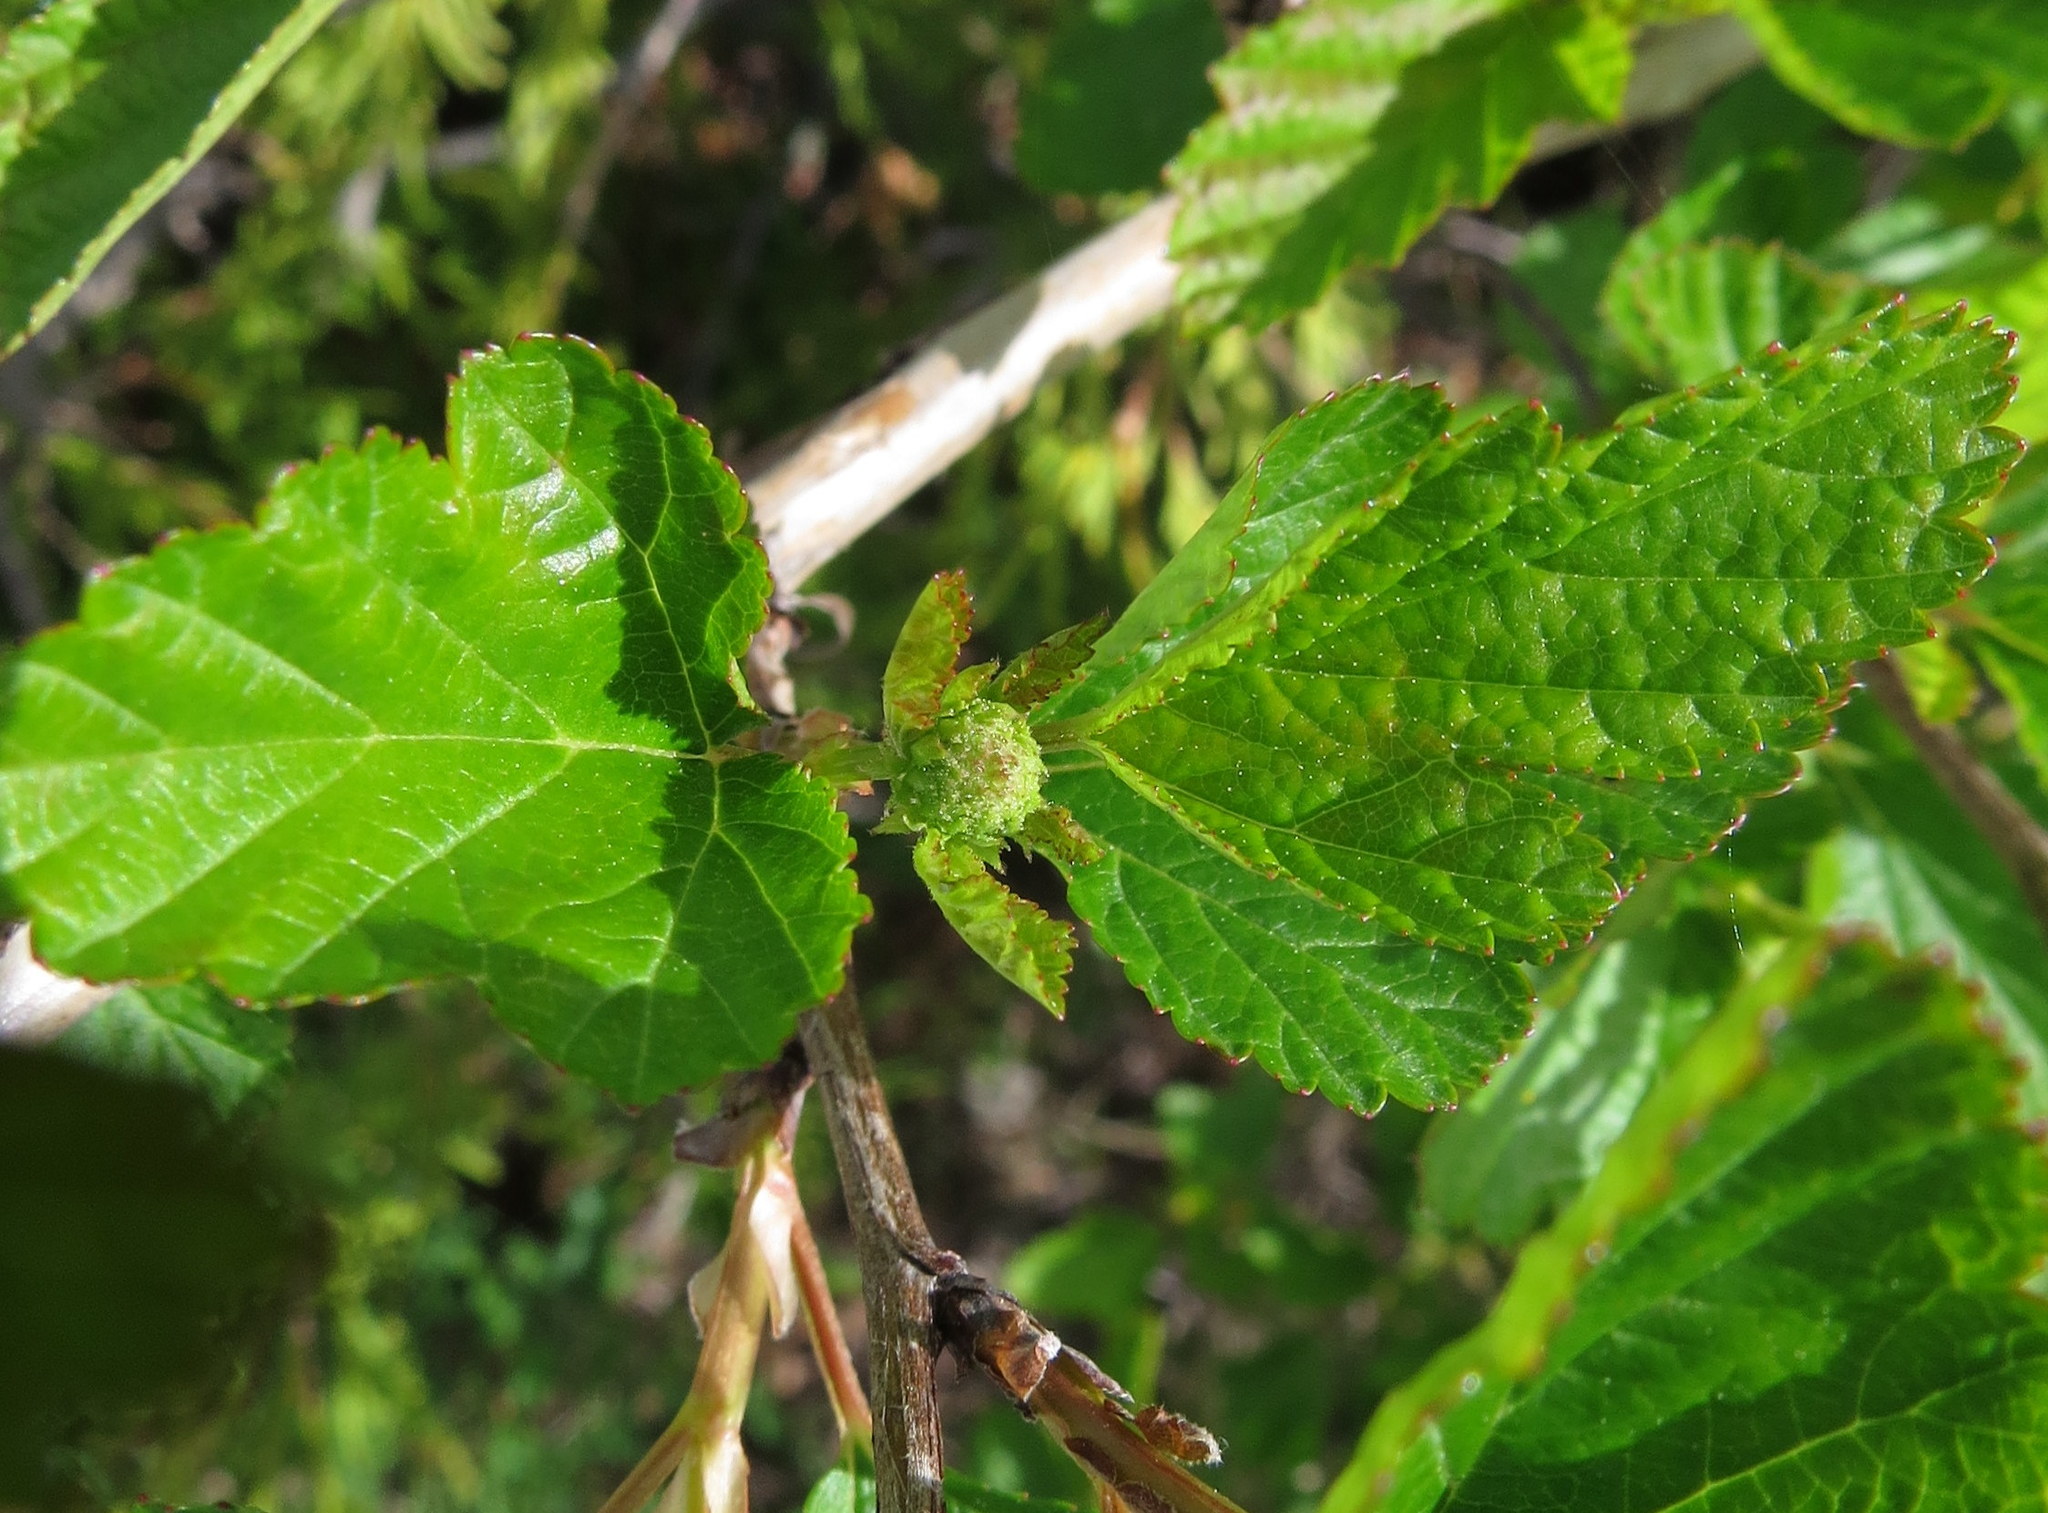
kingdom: Plantae
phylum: Tracheophyta
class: Magnoliopsida
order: Rosales
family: Rosaceae
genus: Physocarpus
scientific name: Physocarpus opulifolius
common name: Ninebark
